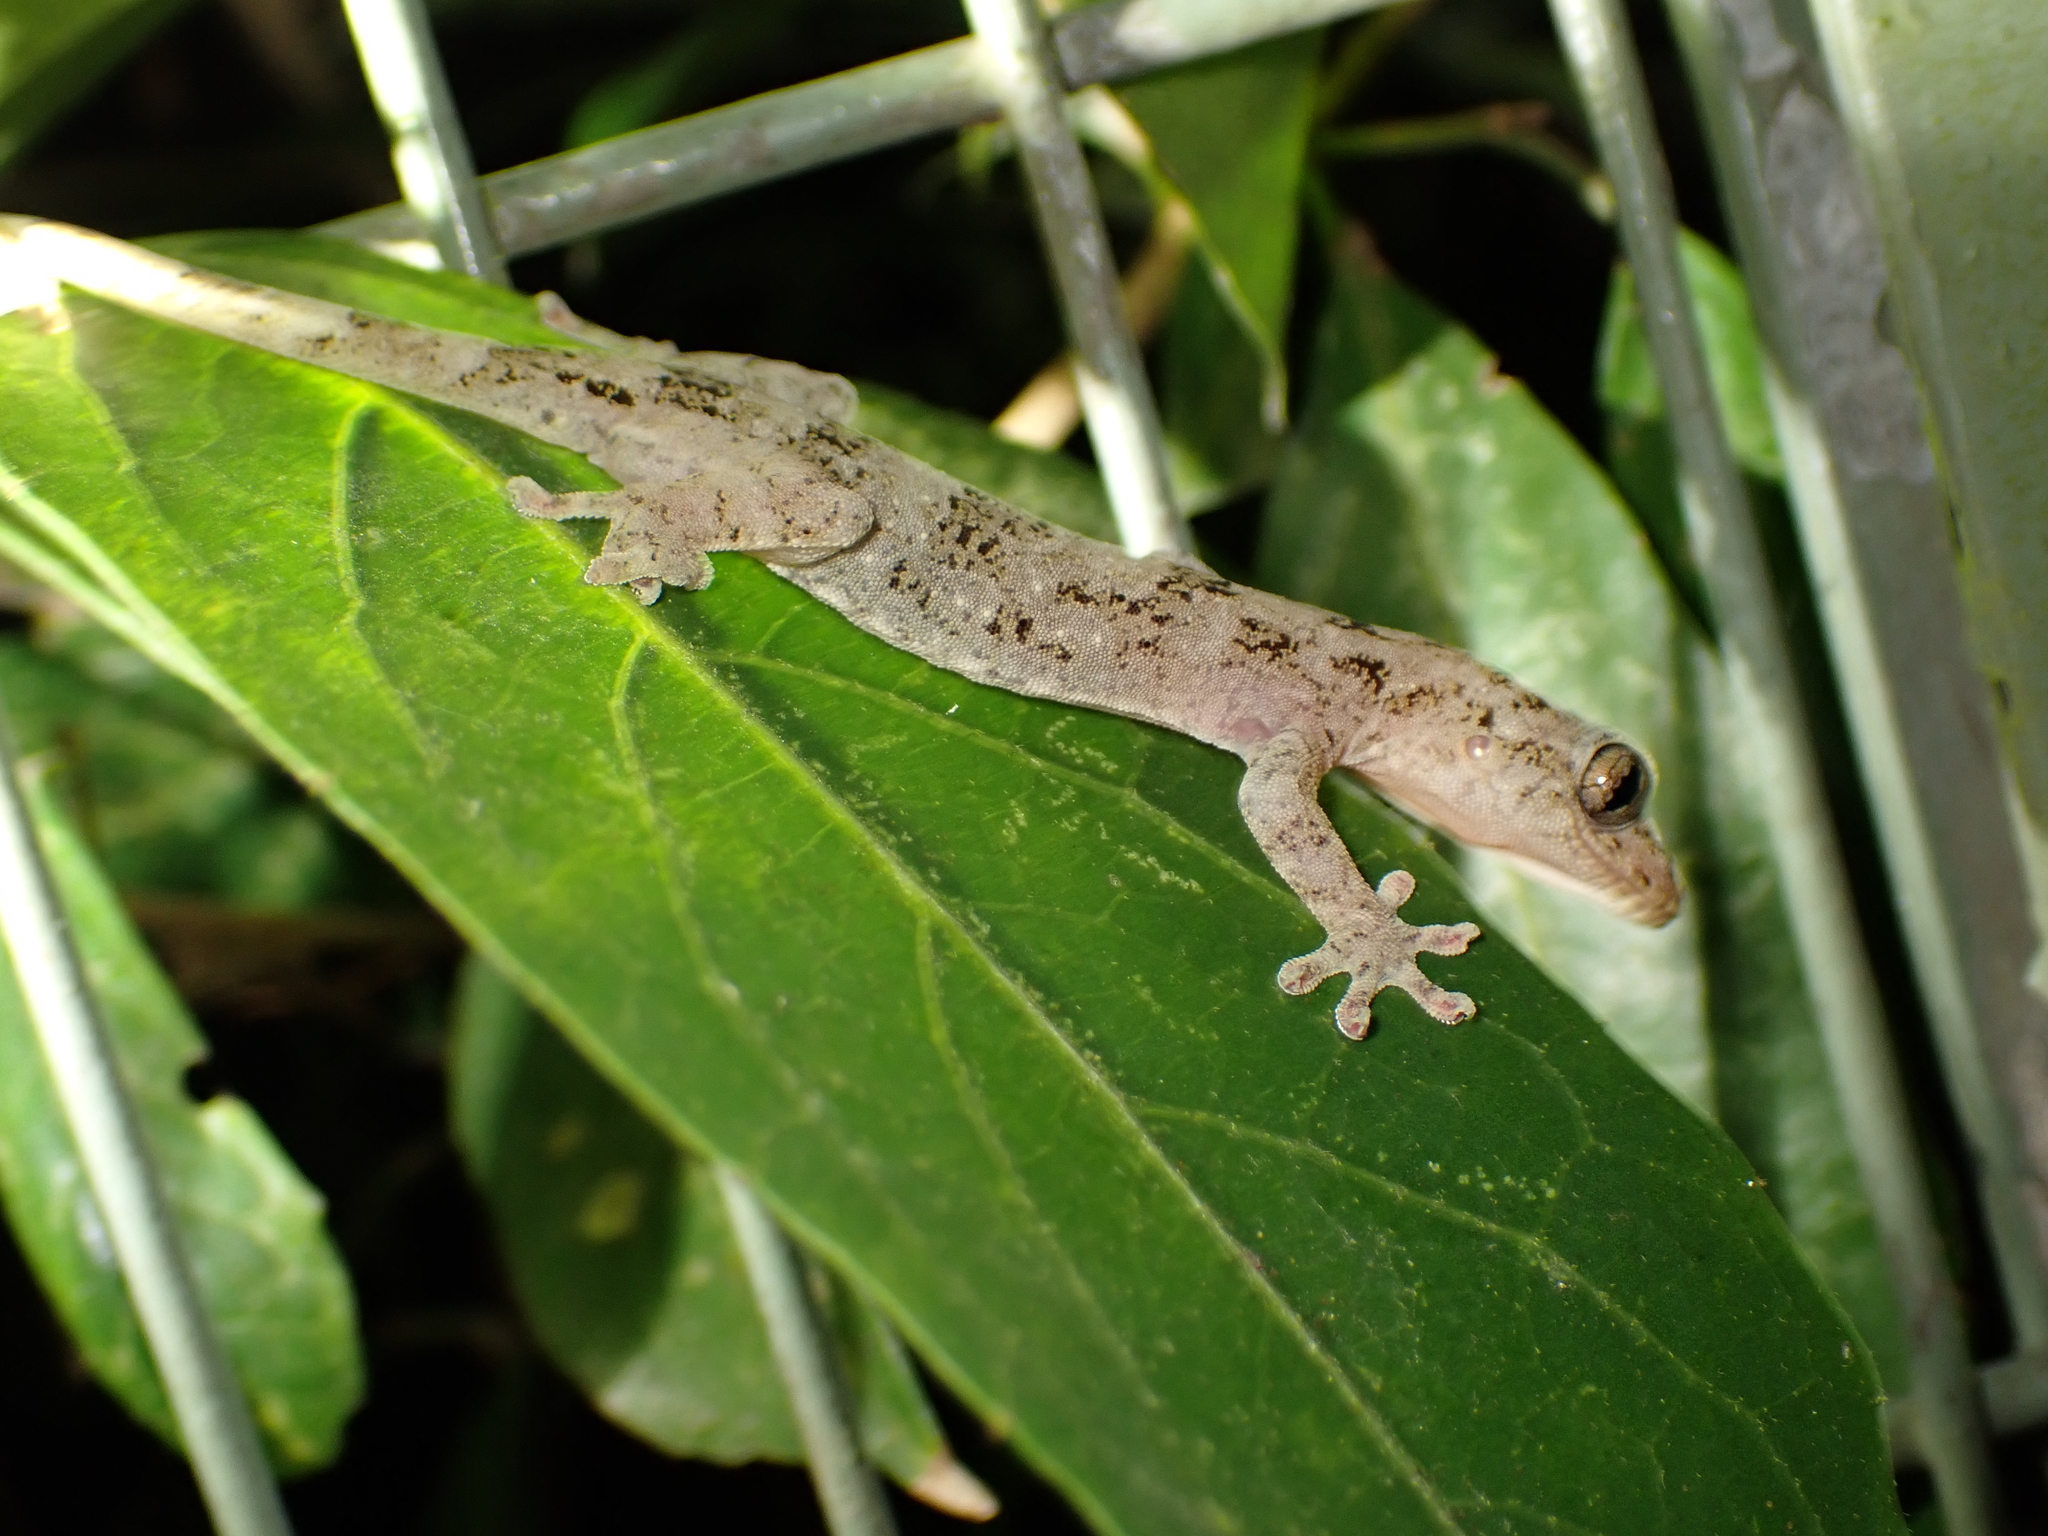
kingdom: Animalia
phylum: Chordata
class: Squamata
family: Gekkonidae
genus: Gekko
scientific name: Gekko chinensis
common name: Gray's chinese gecko
